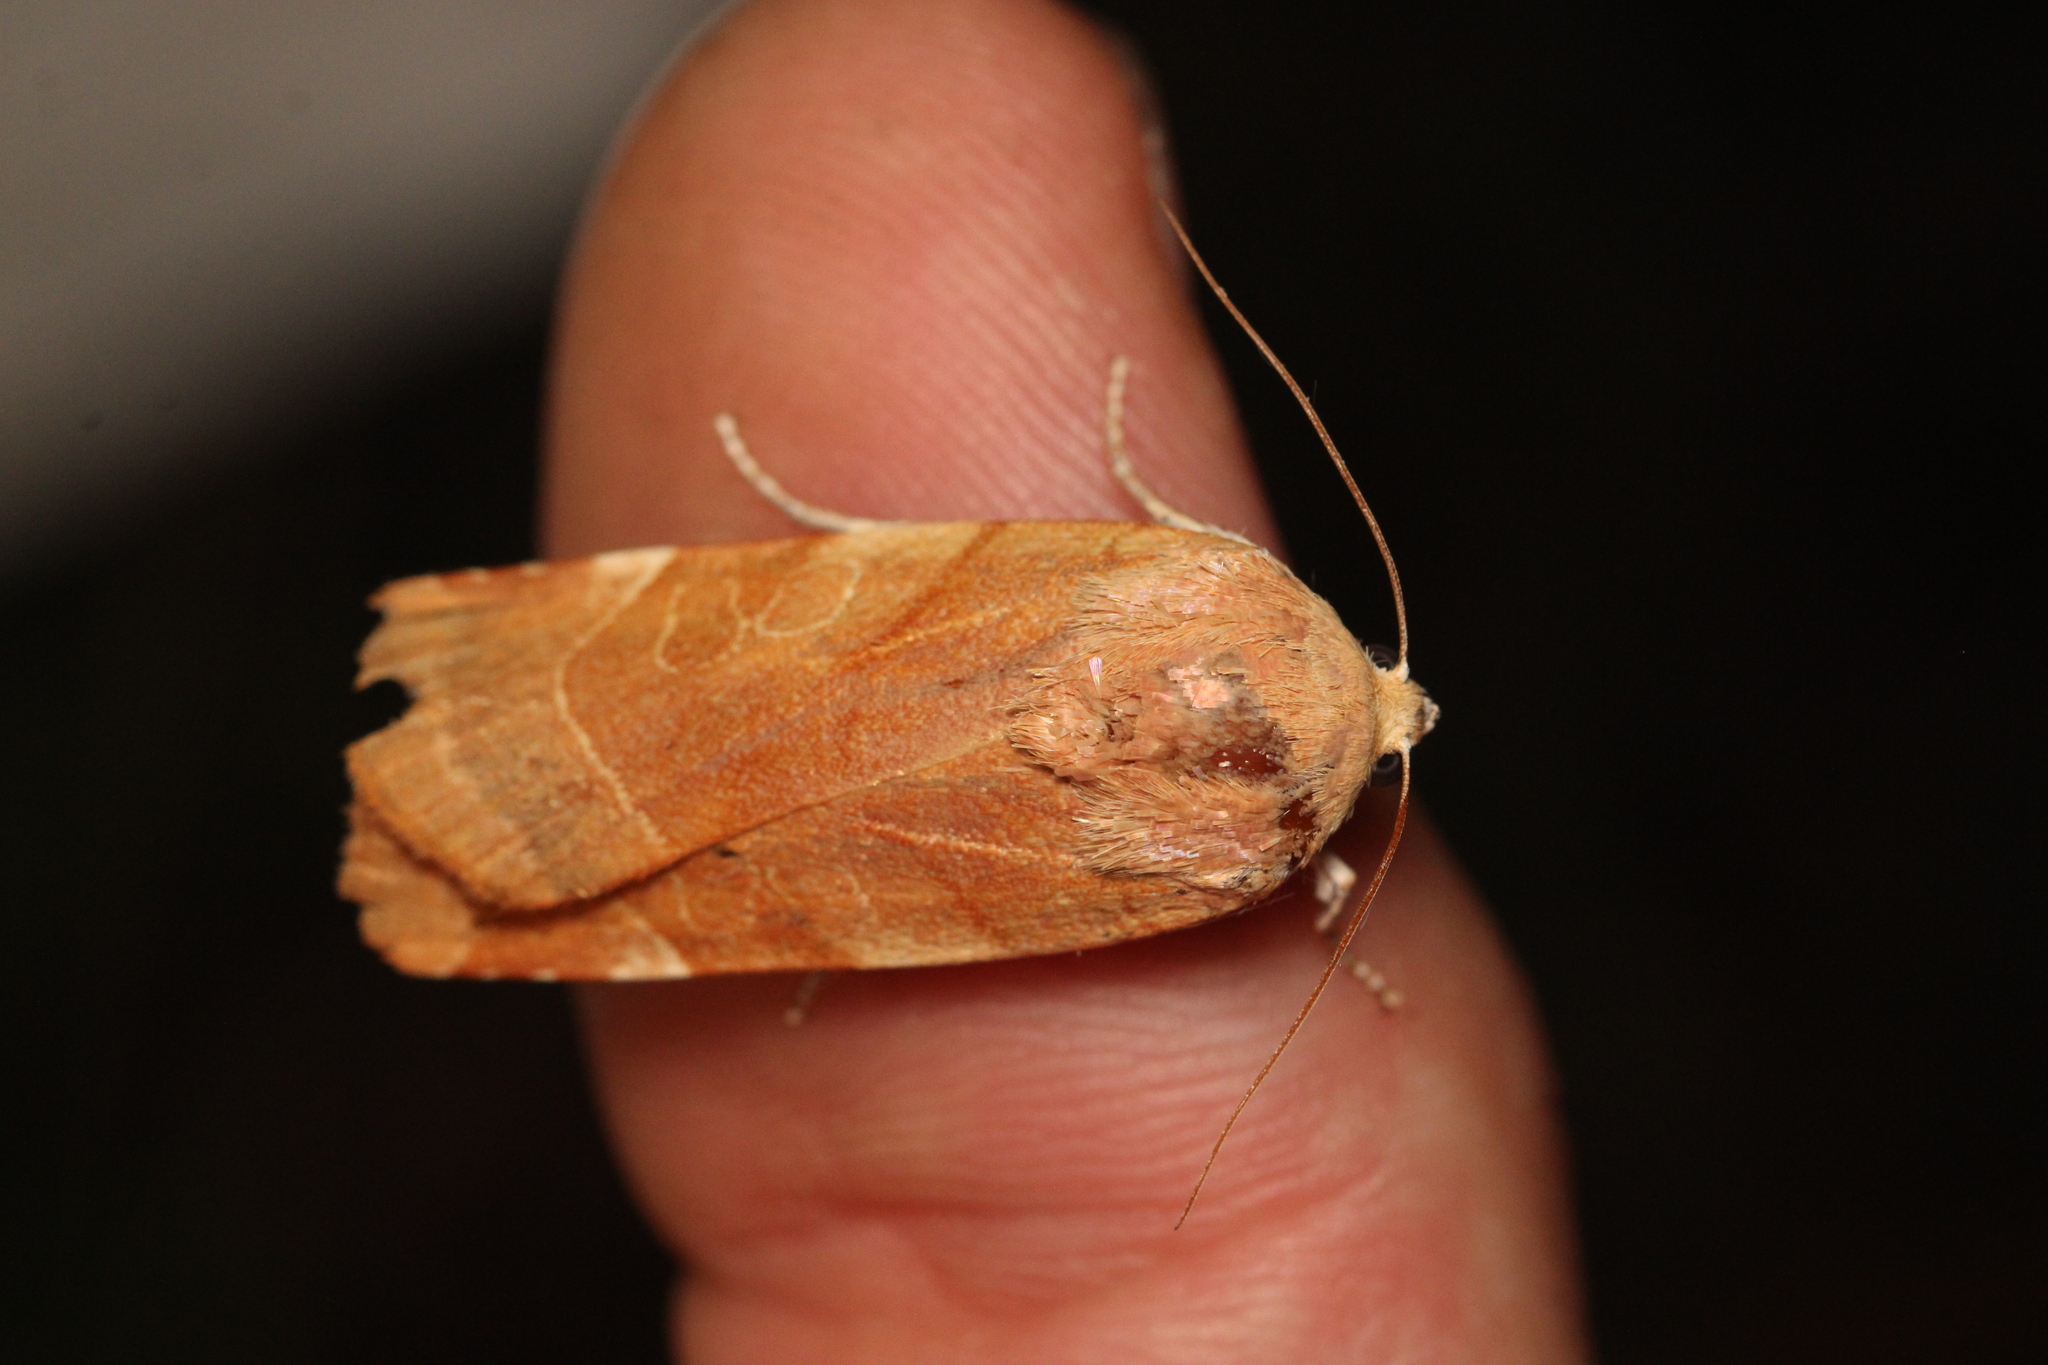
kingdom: Animalia
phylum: Arthropoda
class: Insecta
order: Lepidoptera
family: Noctuidae
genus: Noctua
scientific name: Noctua fimbriata
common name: Broad-bordered yellow underwing
